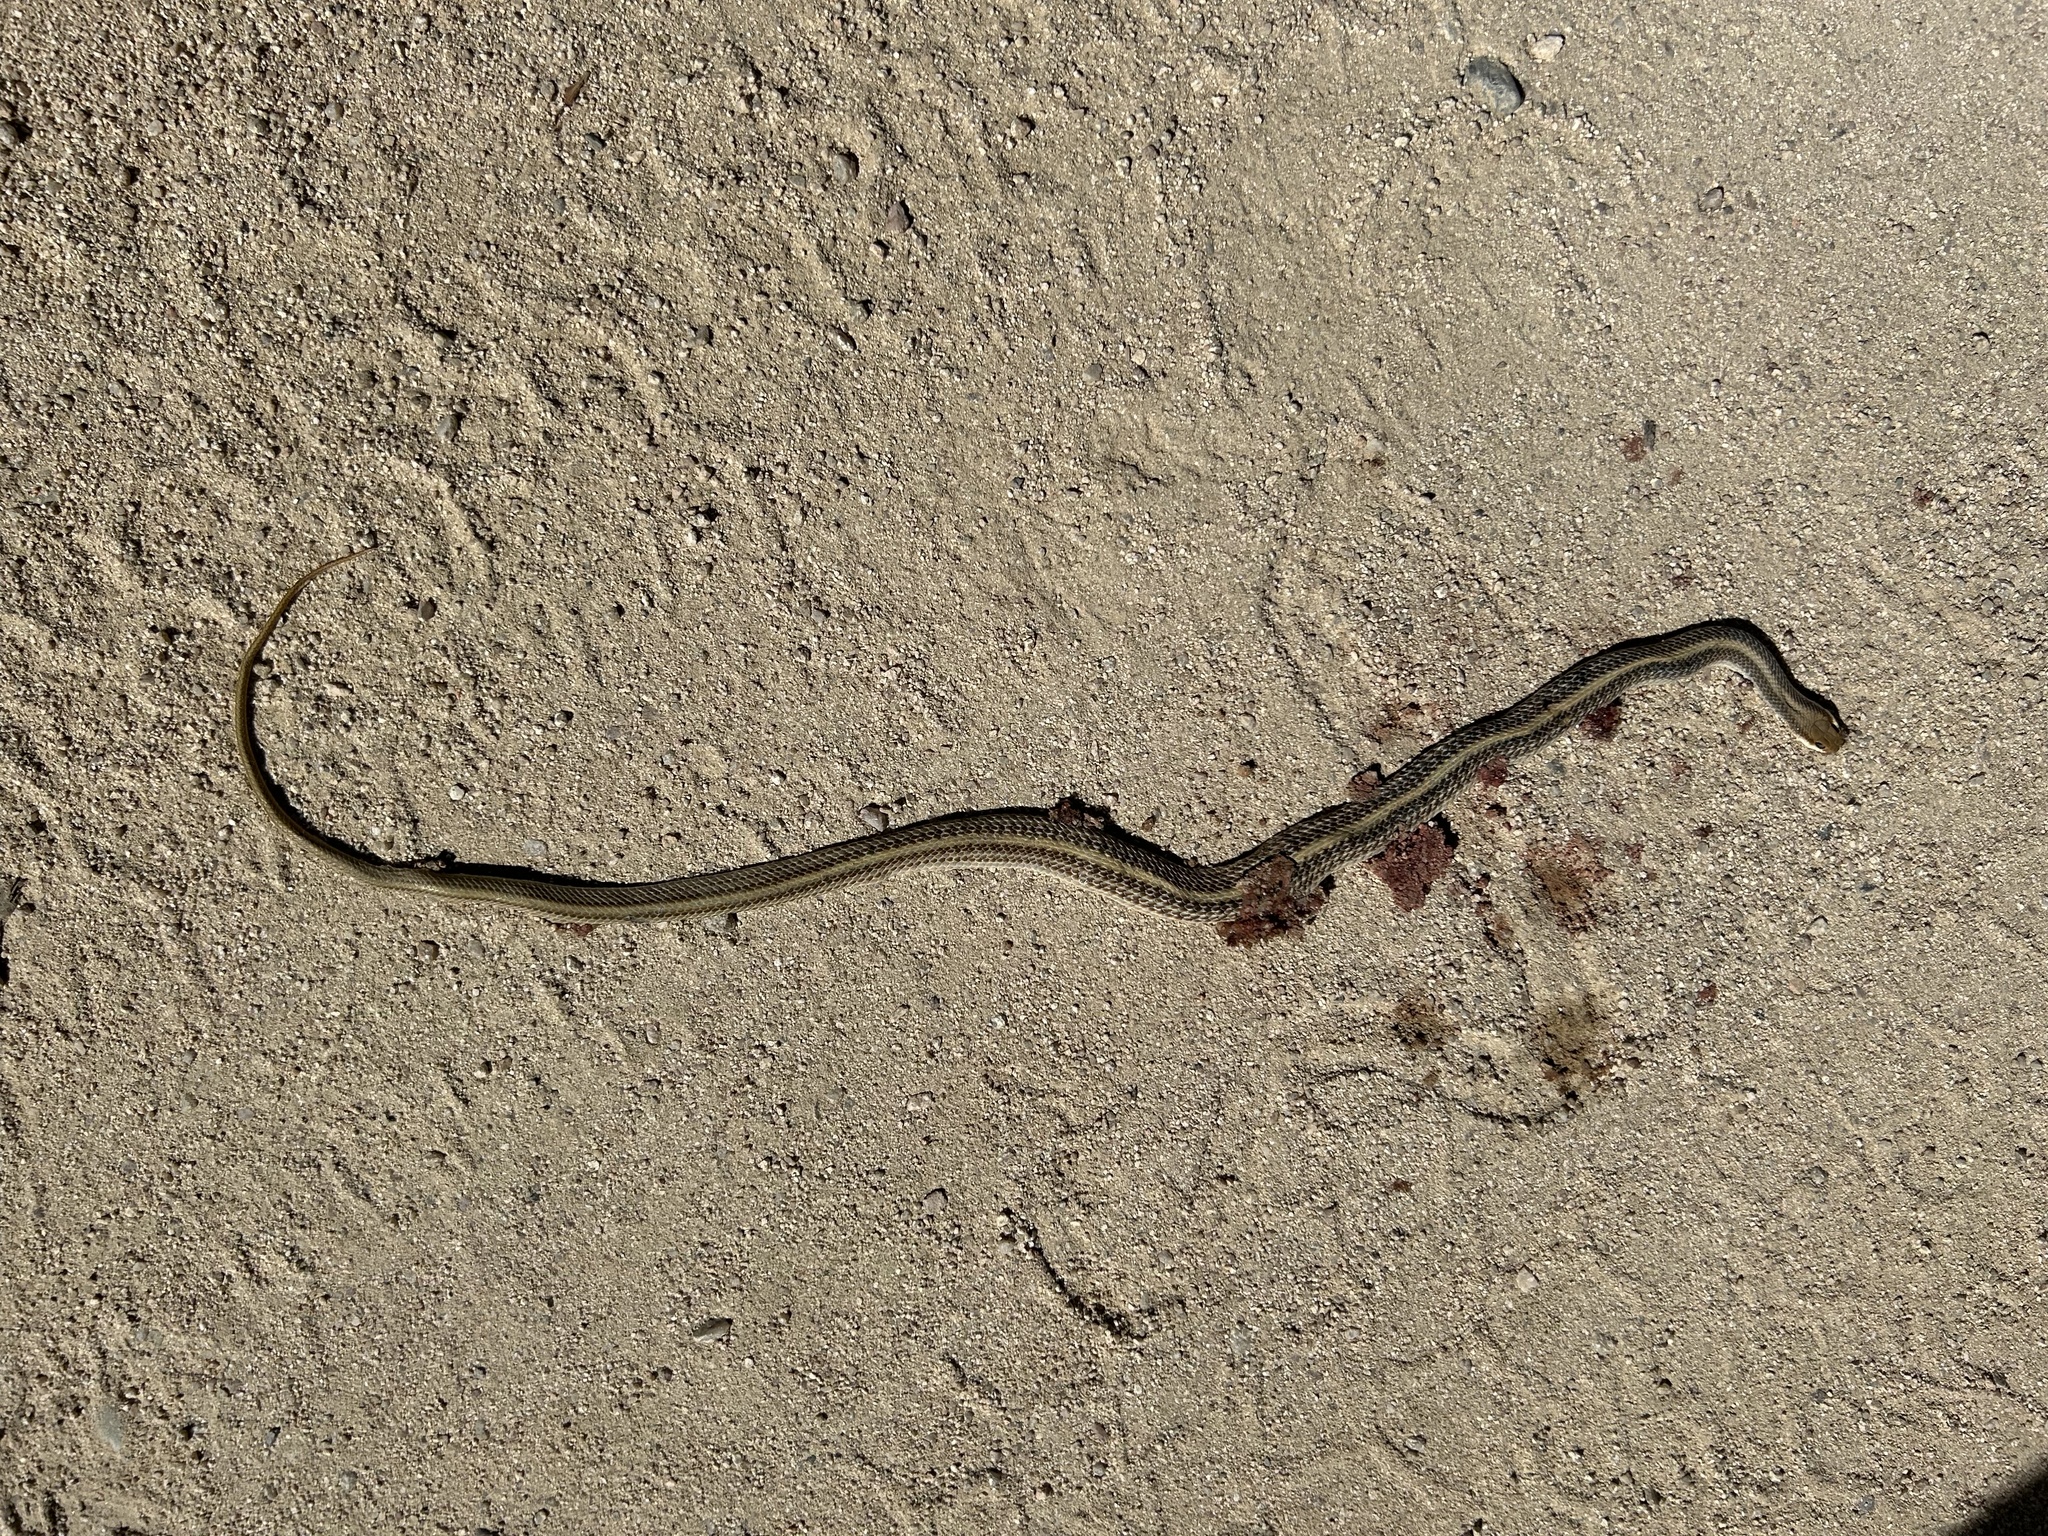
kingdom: Animalia
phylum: Chordata
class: Squamata
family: Colubridae
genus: Salvadora
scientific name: Salvadora hexalepis
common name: Western patchnose snake
